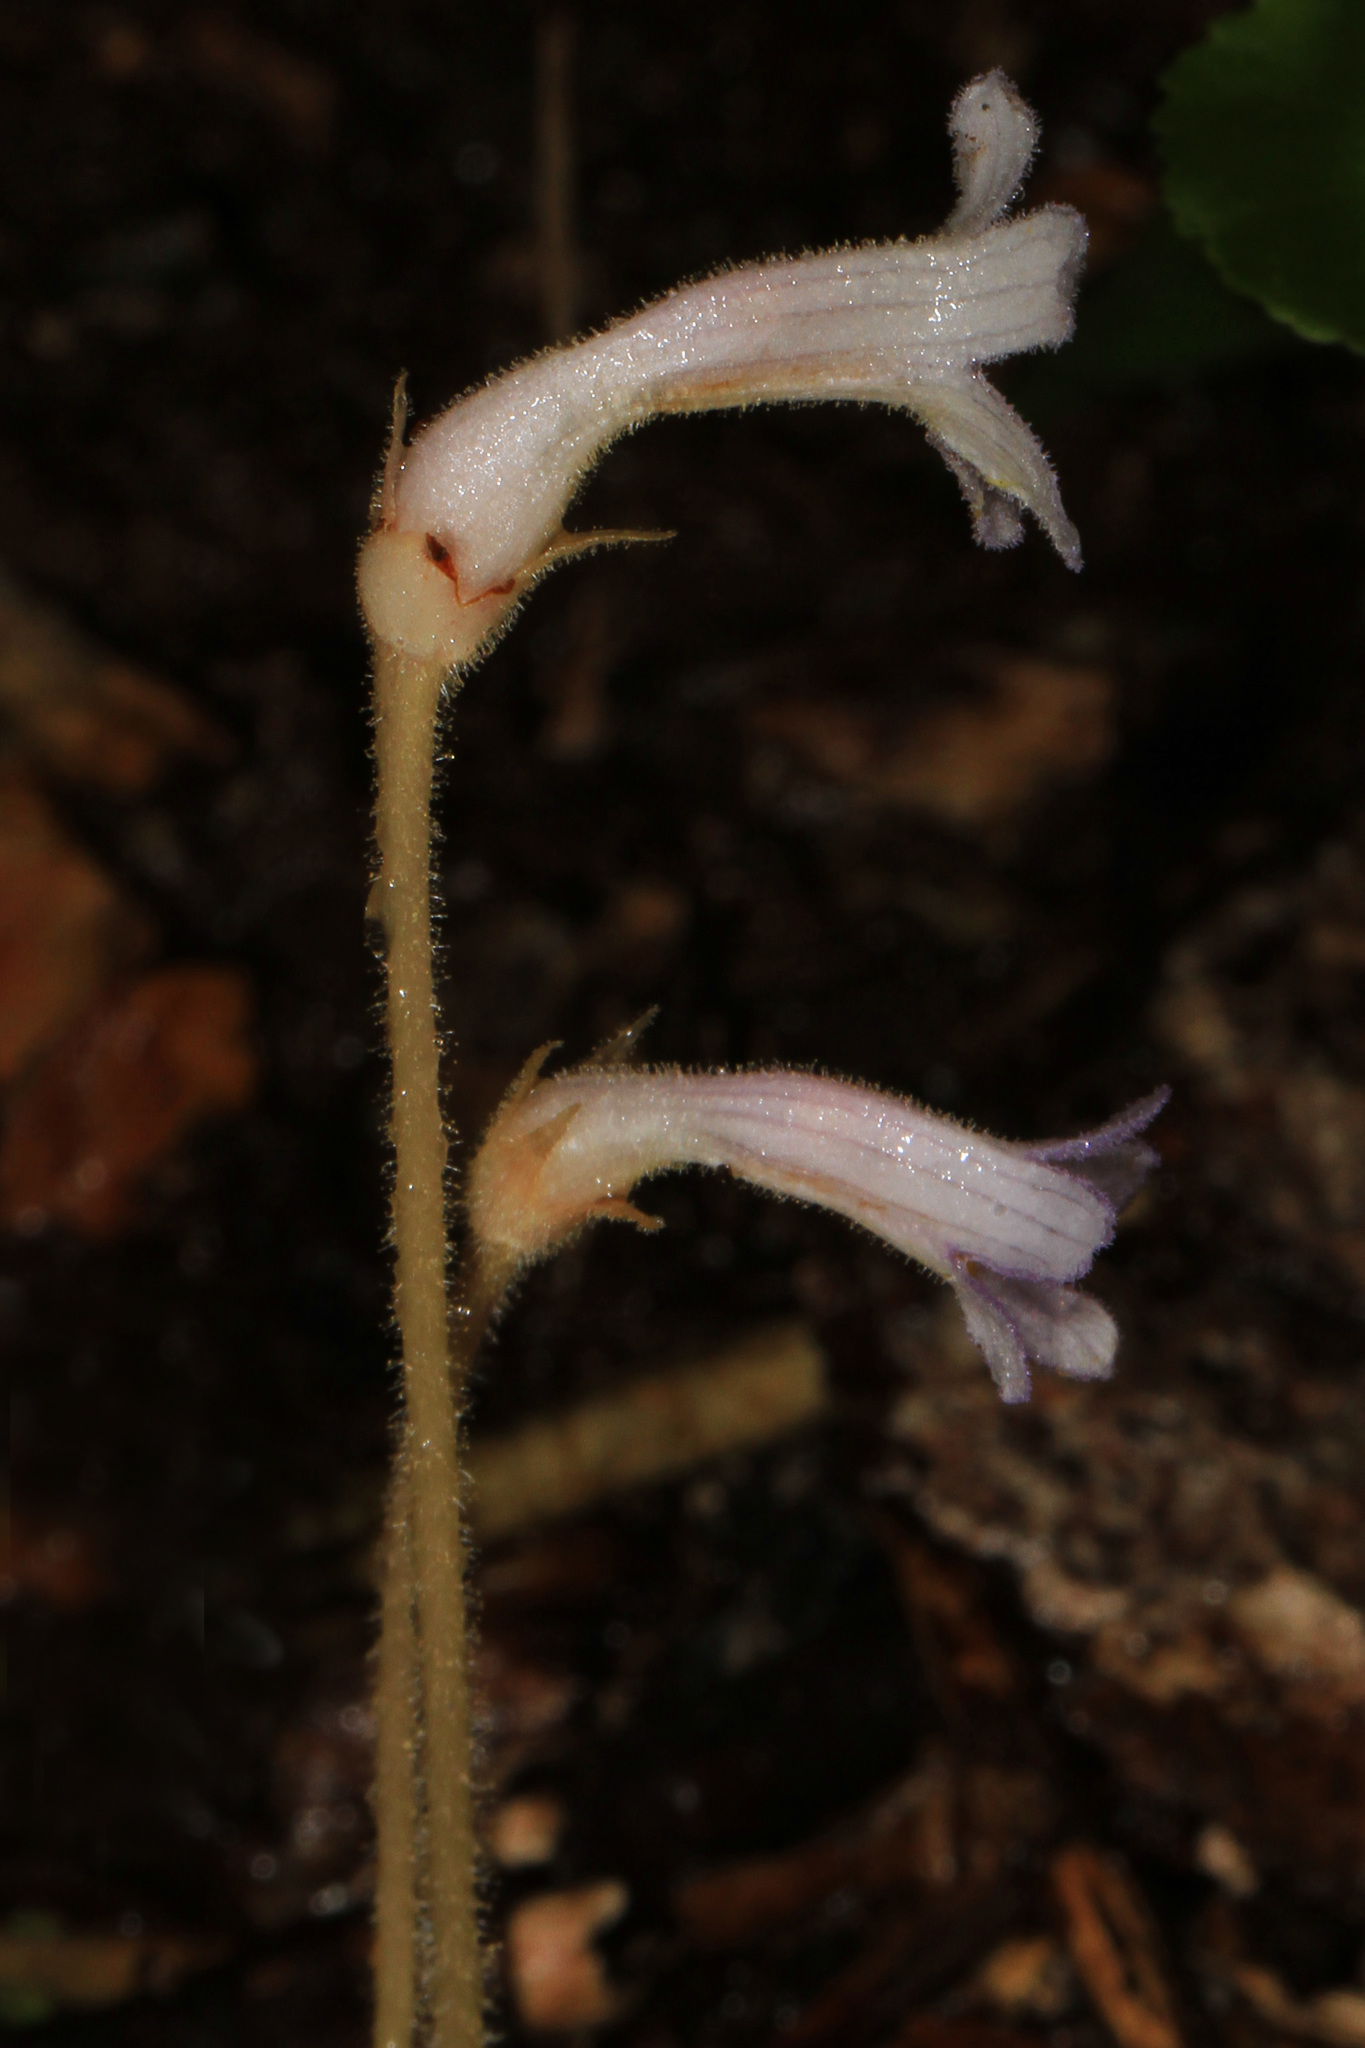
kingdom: Plantae
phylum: Tracheophyta
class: Magnoliopsida
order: Lamiales
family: Orobanchaceae
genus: Aphyllon
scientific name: Aphyllon uniflorum
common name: One-flowered broomrape
